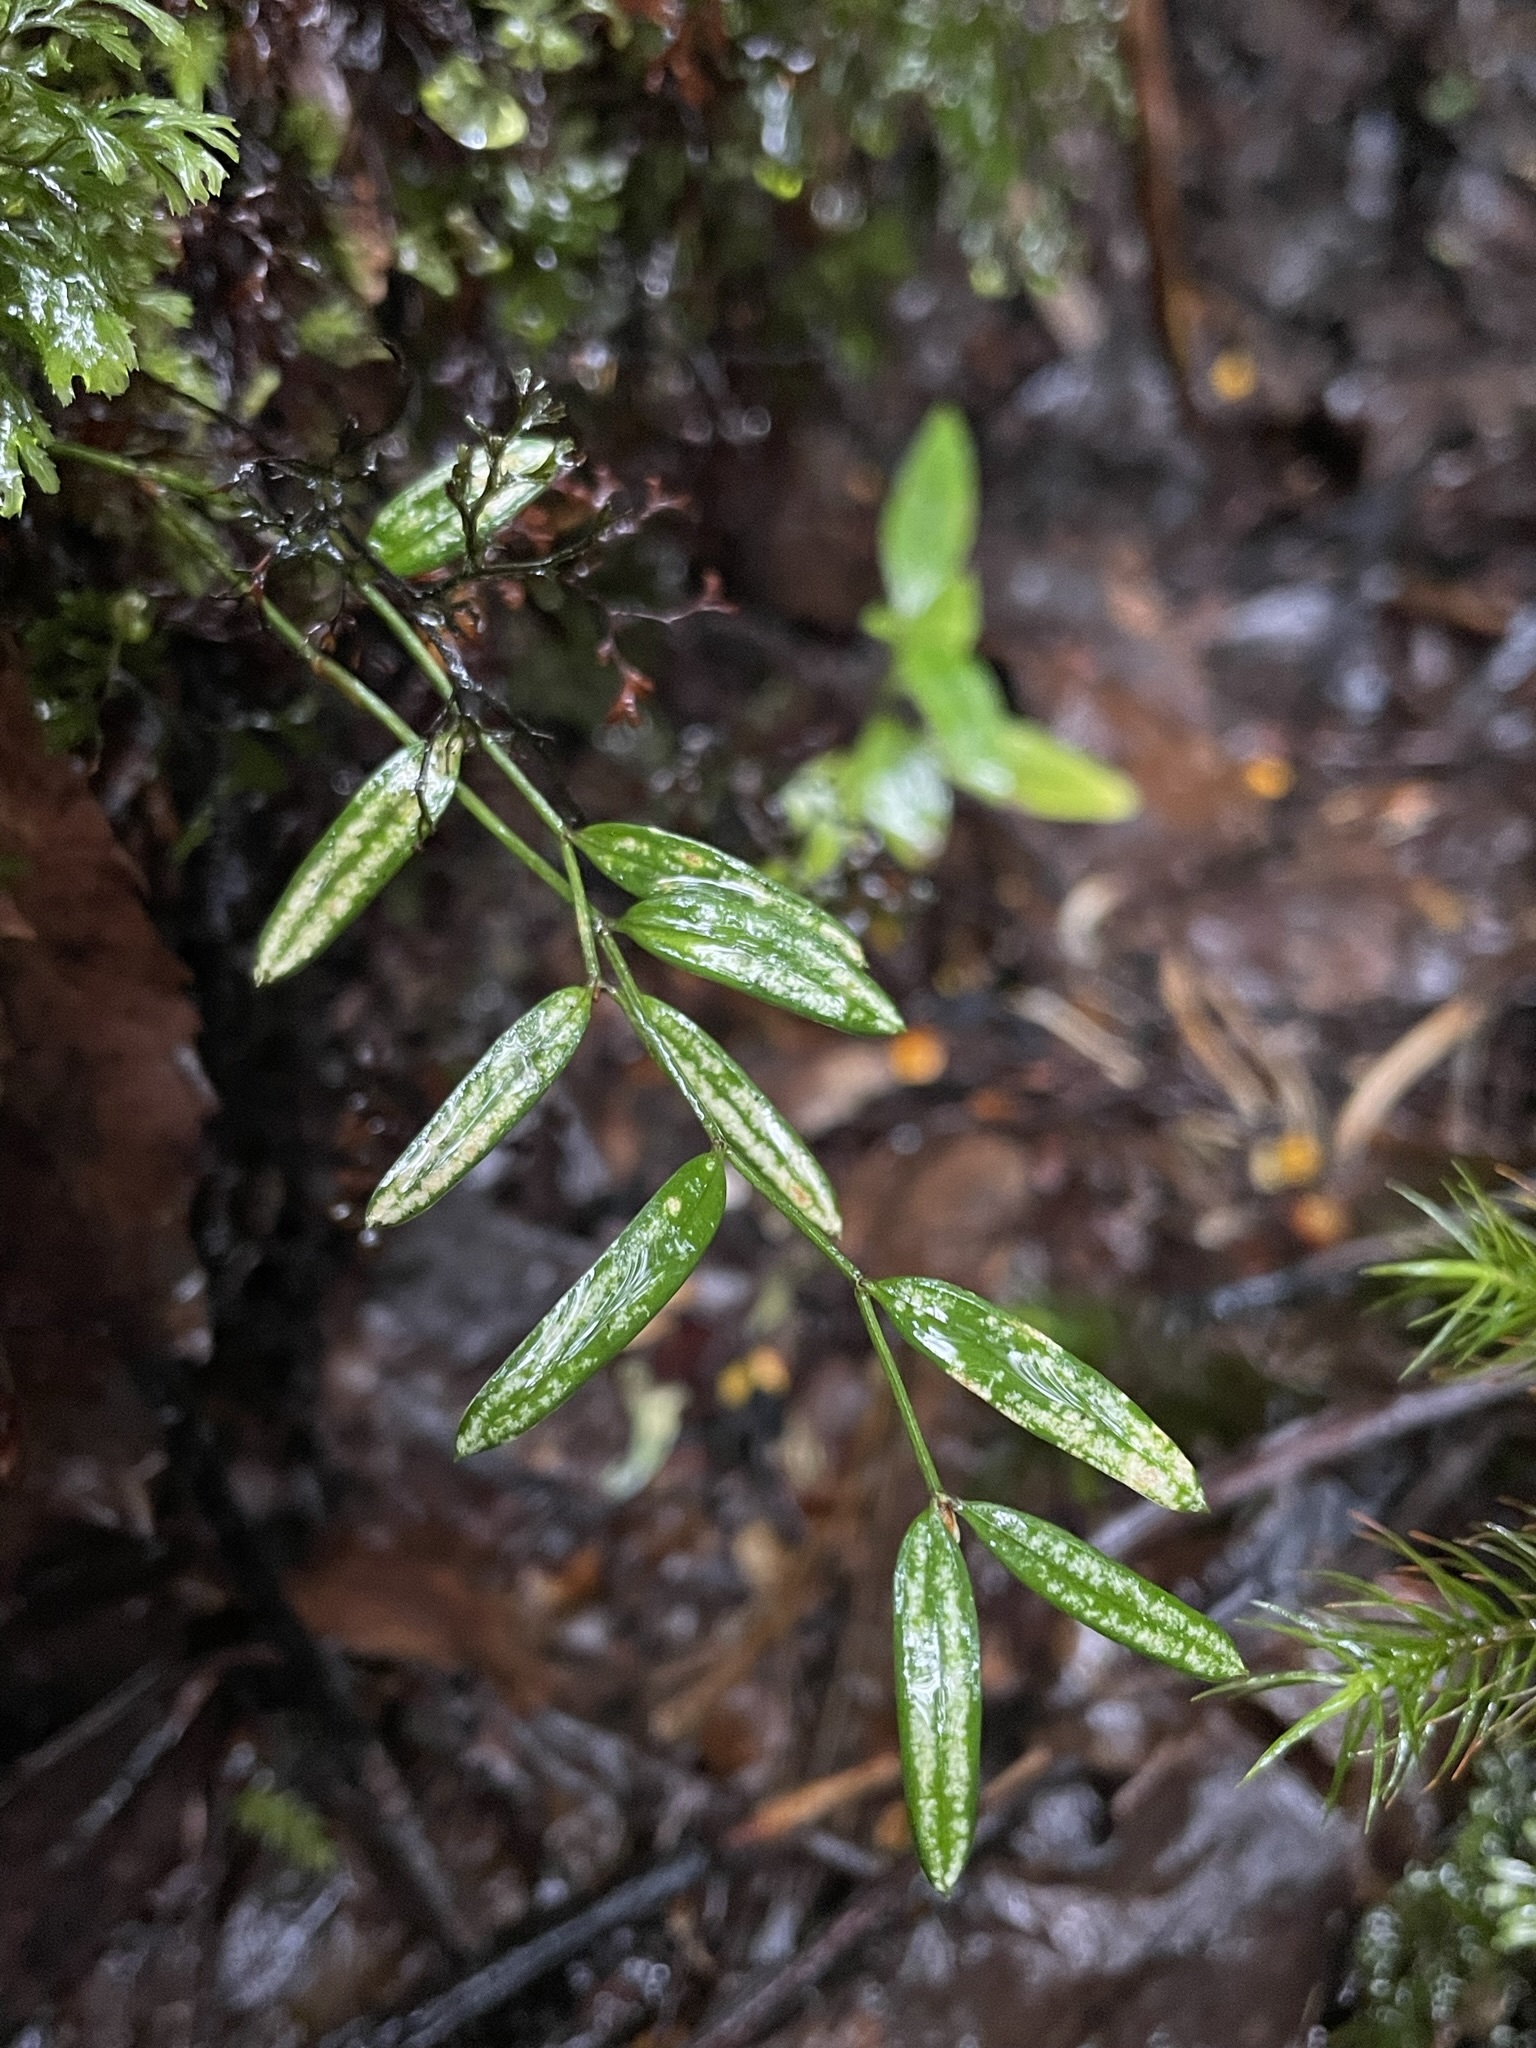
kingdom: Plantae
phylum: Tracheophyta
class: Liliopsida
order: Liliales
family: Alstroemeriaceae
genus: Luzuriaga
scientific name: Luzuriaga parviflora
